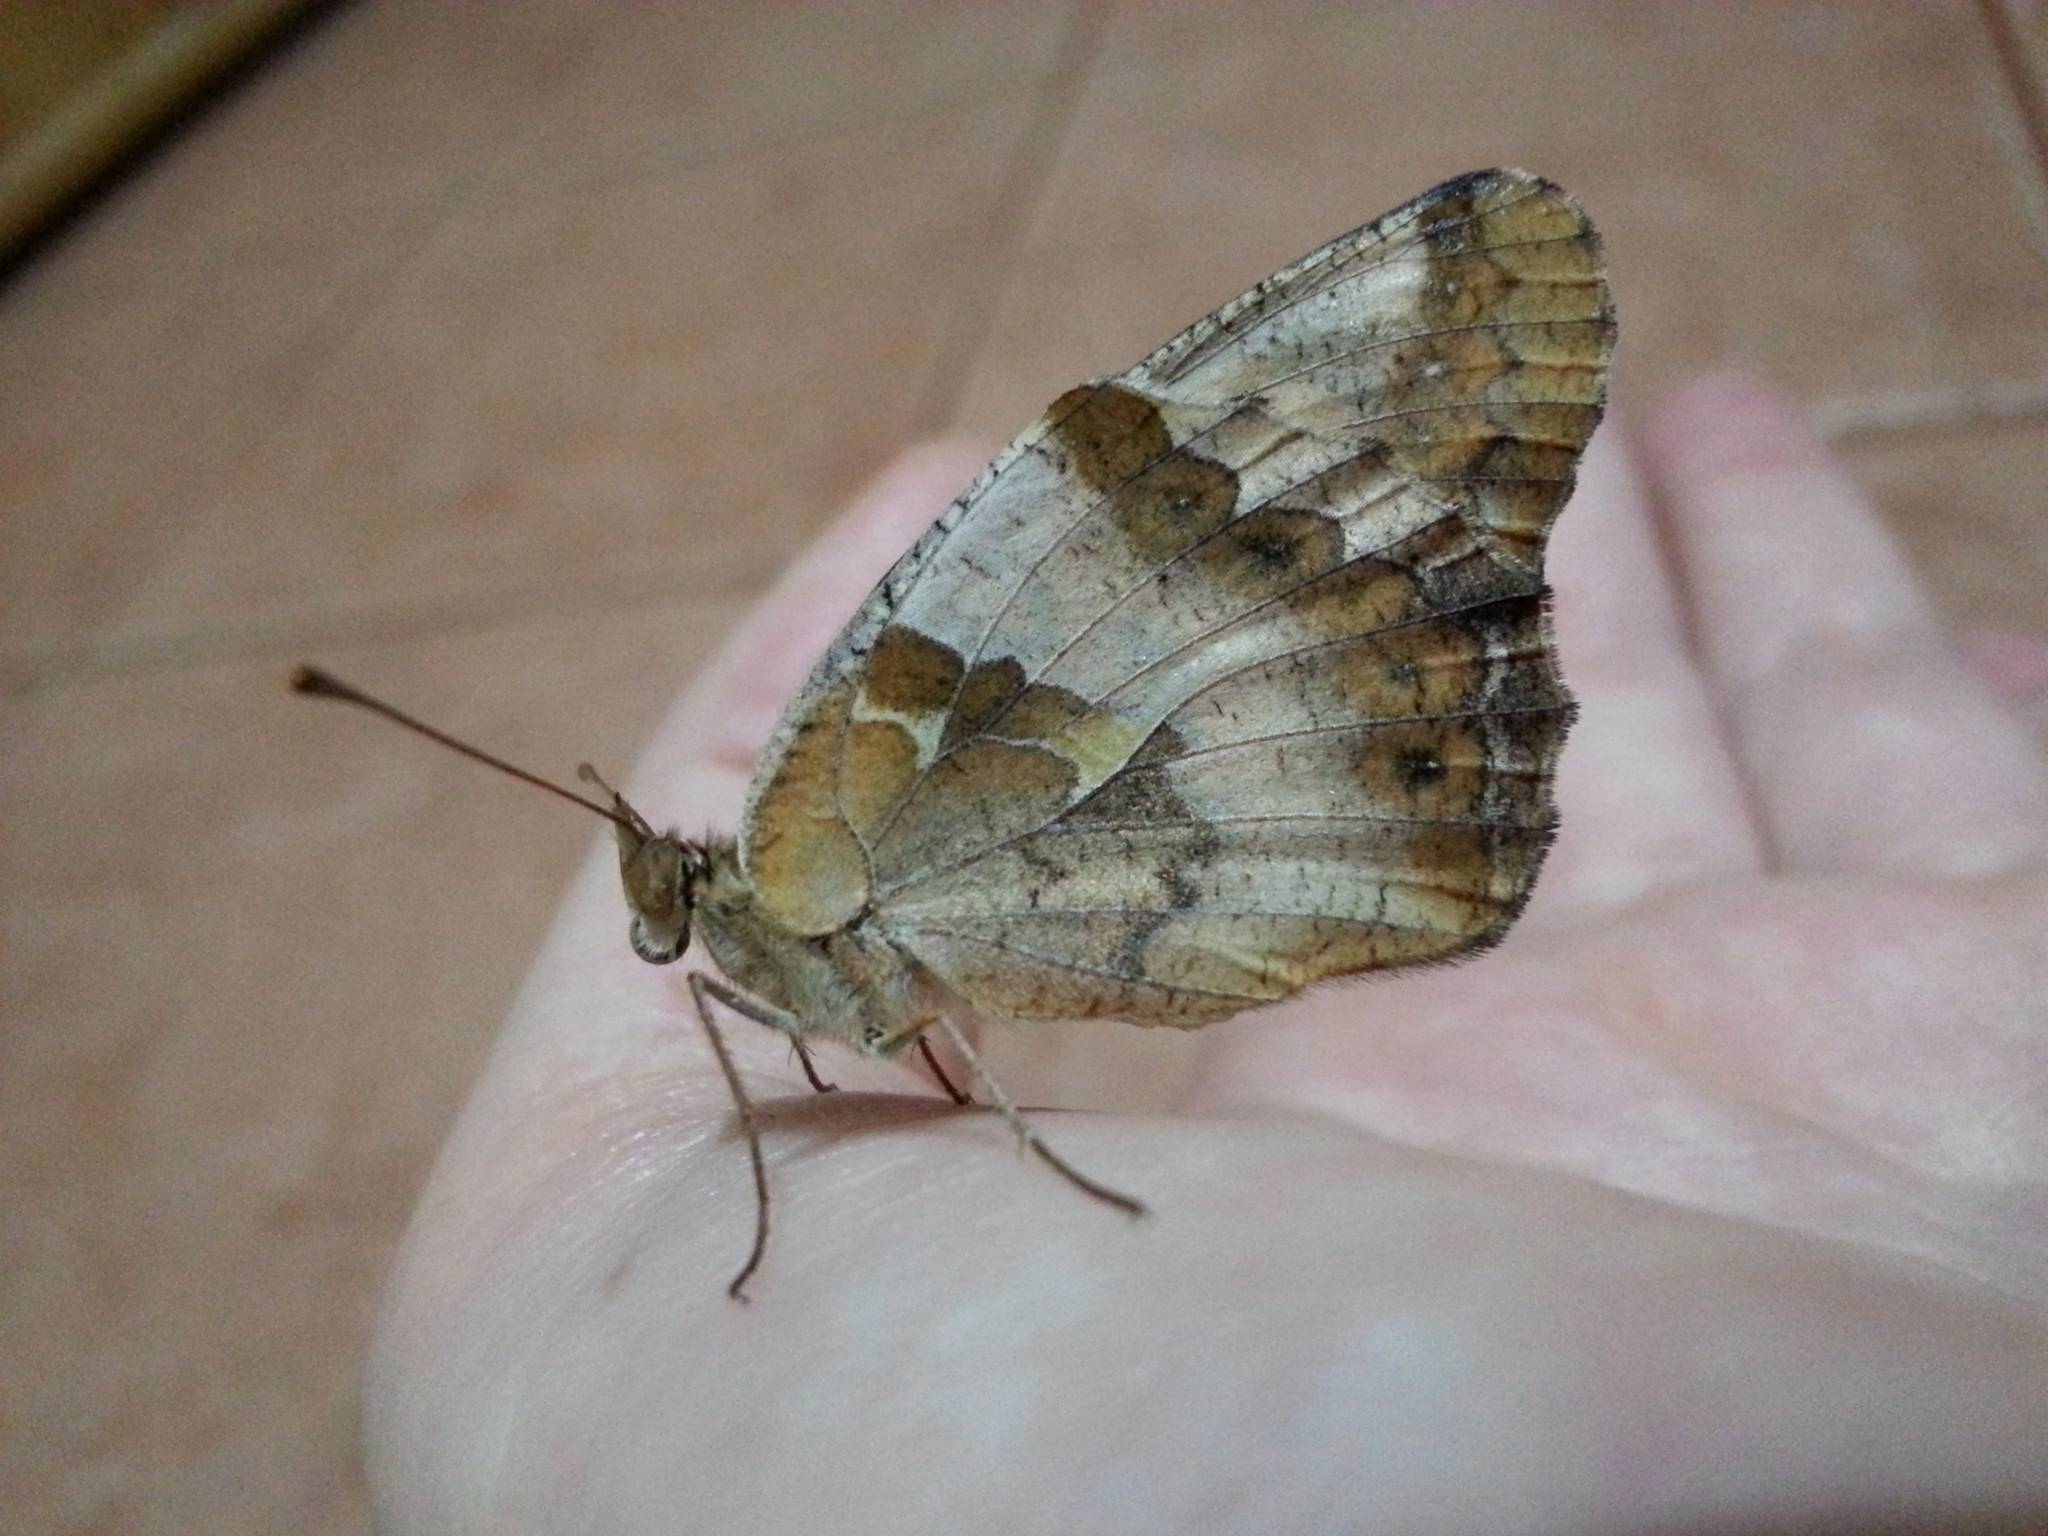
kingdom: Animalia
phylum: Arthropoda
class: Insecta
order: Lepidoptera
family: Nymphalidae
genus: Euptoieta
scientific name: Euptoieta hortensia
